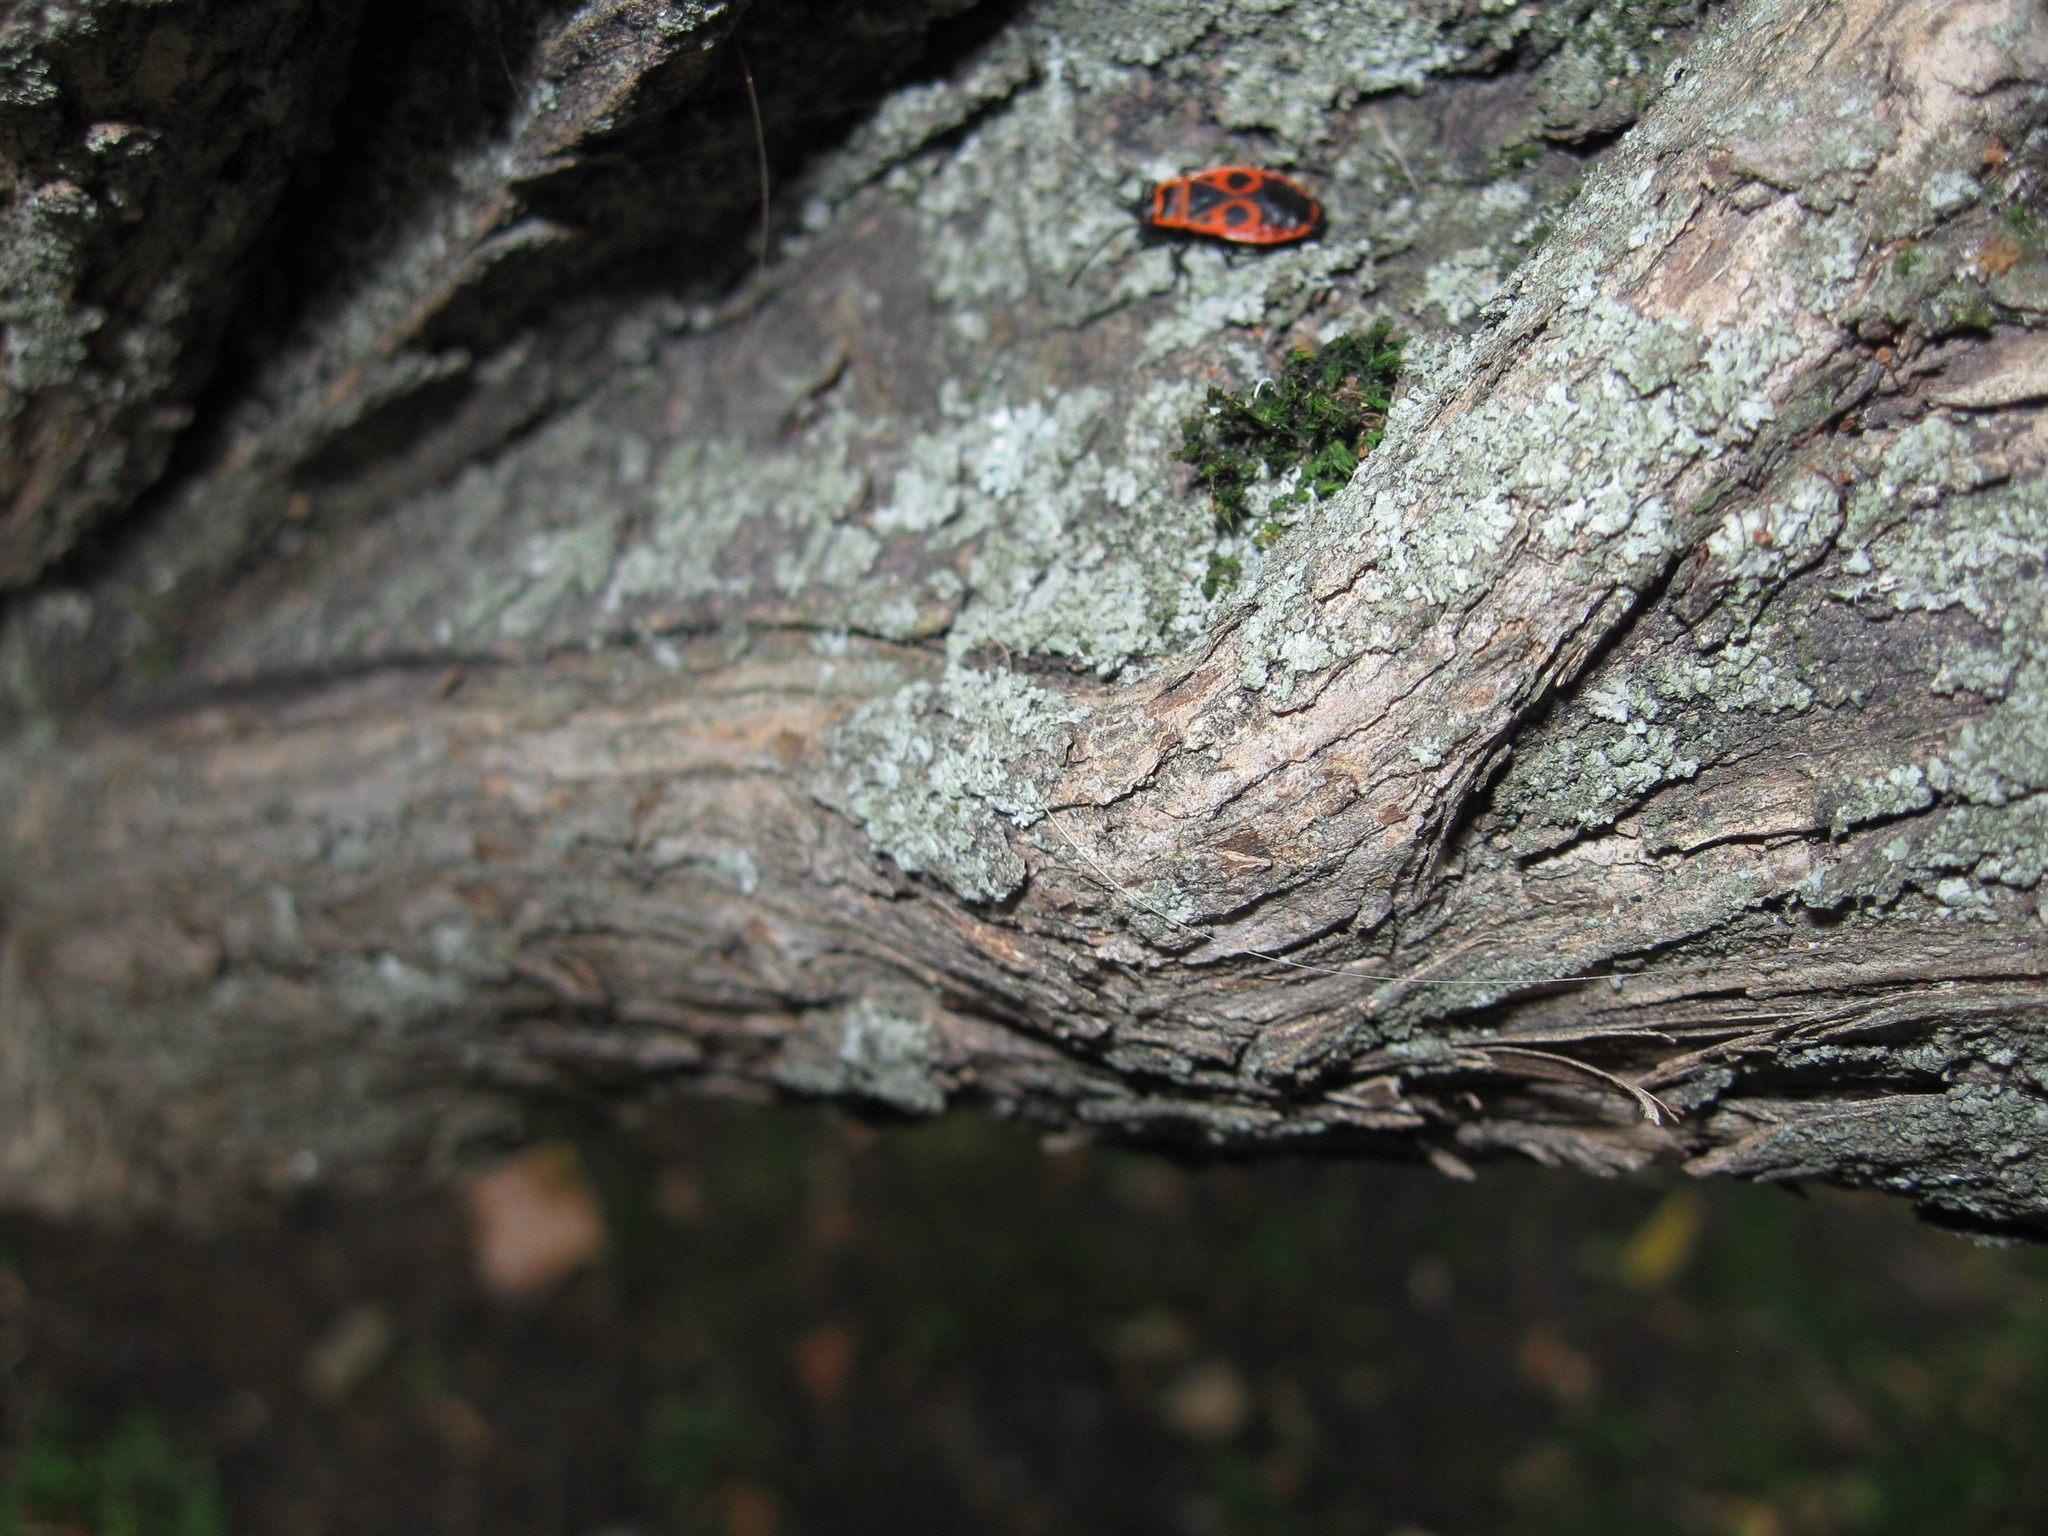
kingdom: Animalia
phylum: Arthropoda
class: Insecta
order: Hemiptera
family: Pyrrhocoridae
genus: Pyrrhocoris
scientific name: Pyrrhocoris apterus
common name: Firebug
